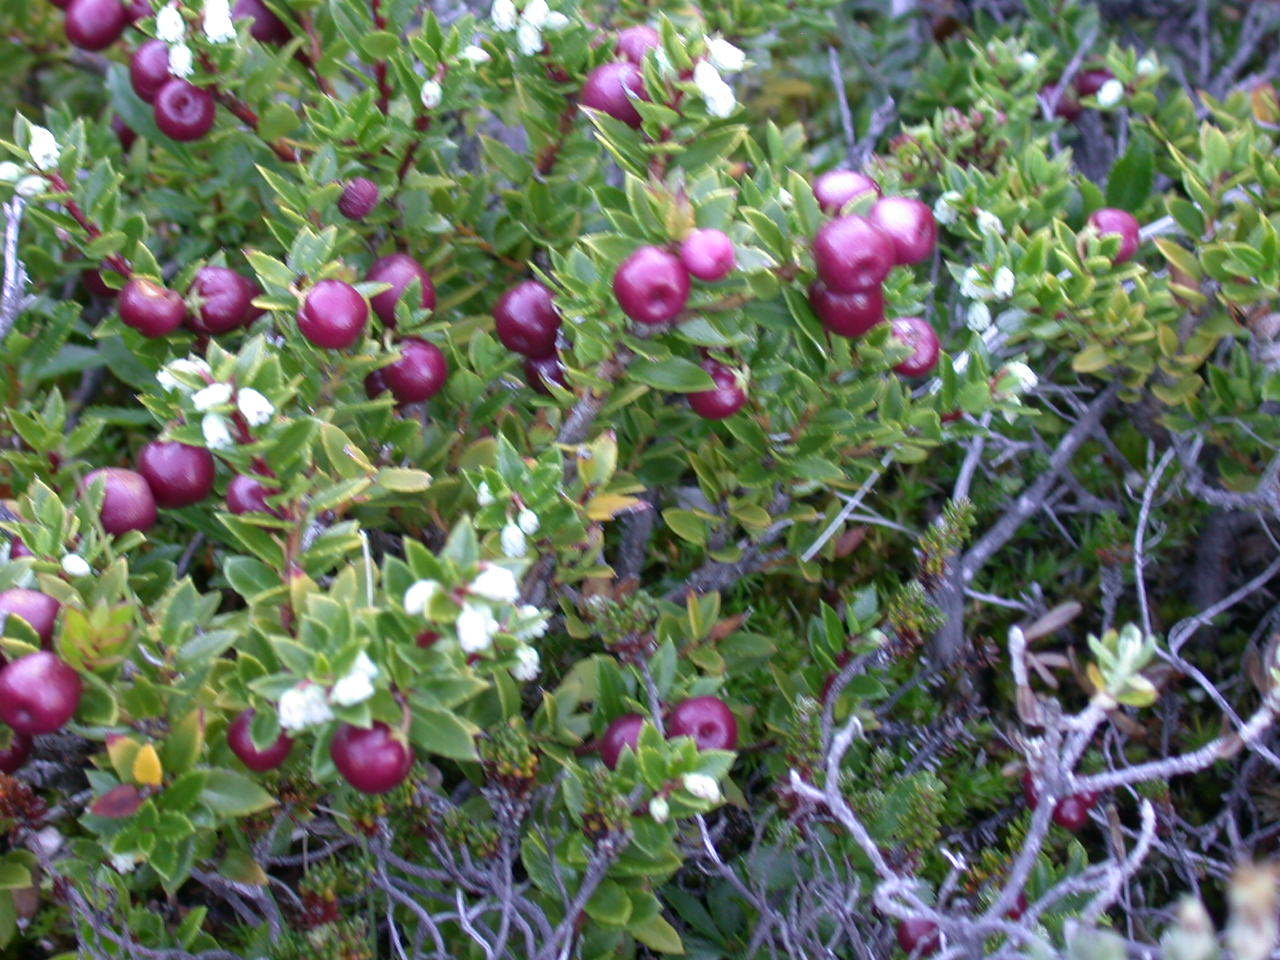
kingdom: Plantae
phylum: Tracheophyta
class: Magnoliopsida
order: Ericales
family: Ericaceae
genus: Gaultheria
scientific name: Gaultheria mucronata
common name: Prickly heath
